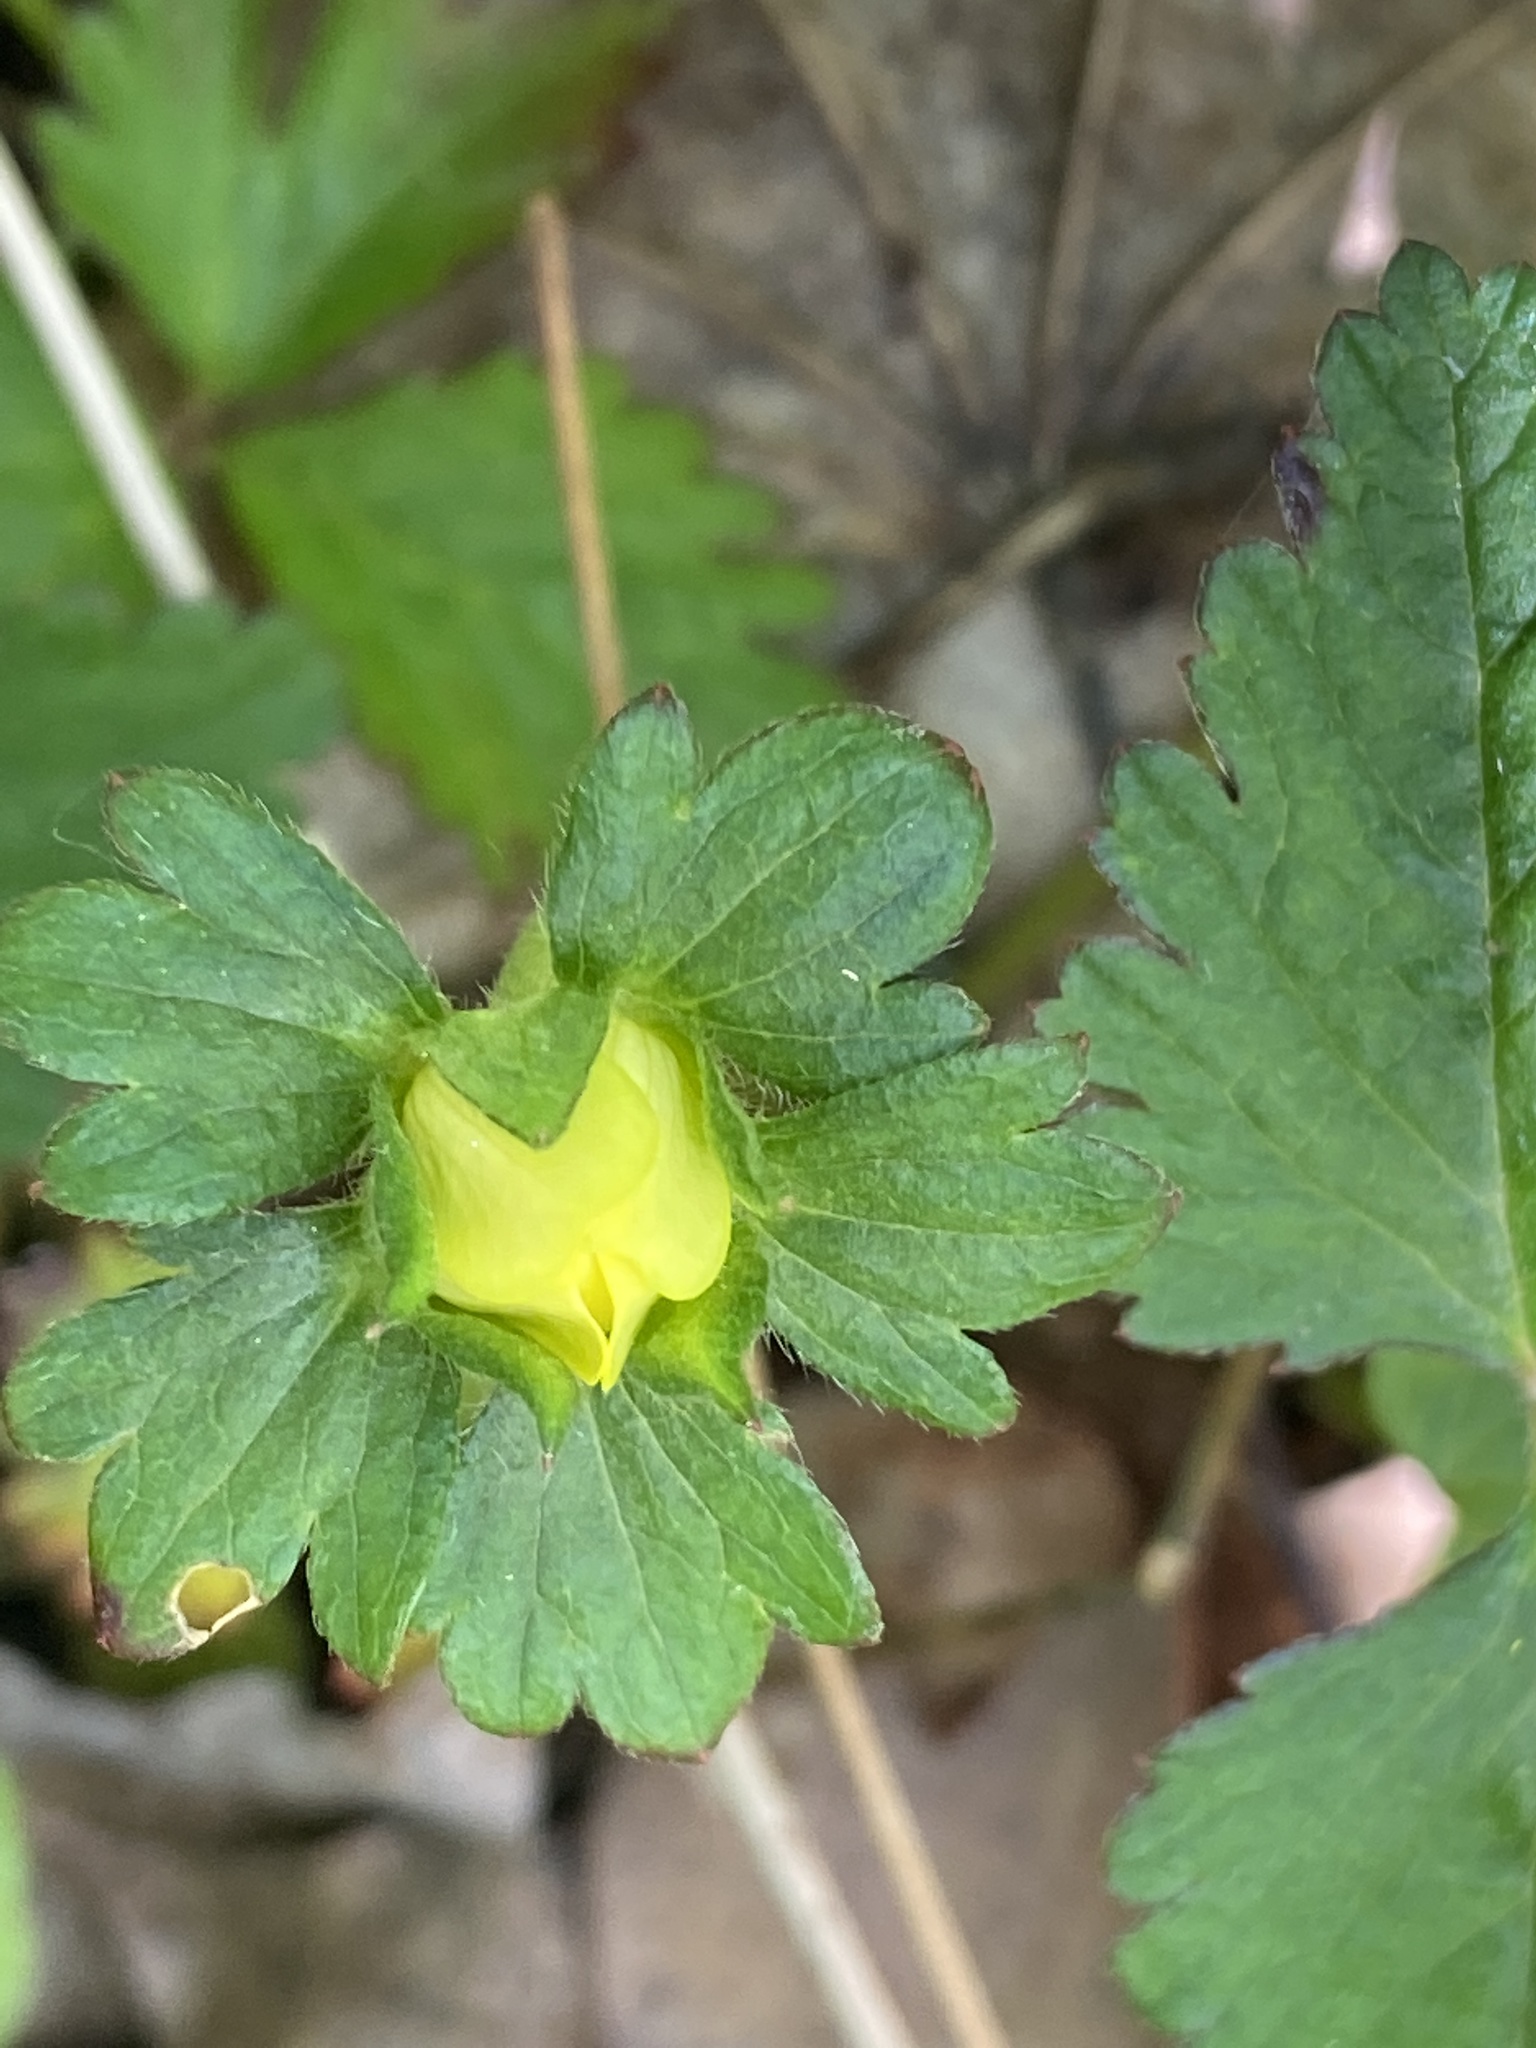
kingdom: Plantae
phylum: Tracheophyta
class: Magnoliopsida
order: Rosales
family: Rosaceae
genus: Potentilla
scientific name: Potentilla indica
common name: Yellow-flowered strawberry
